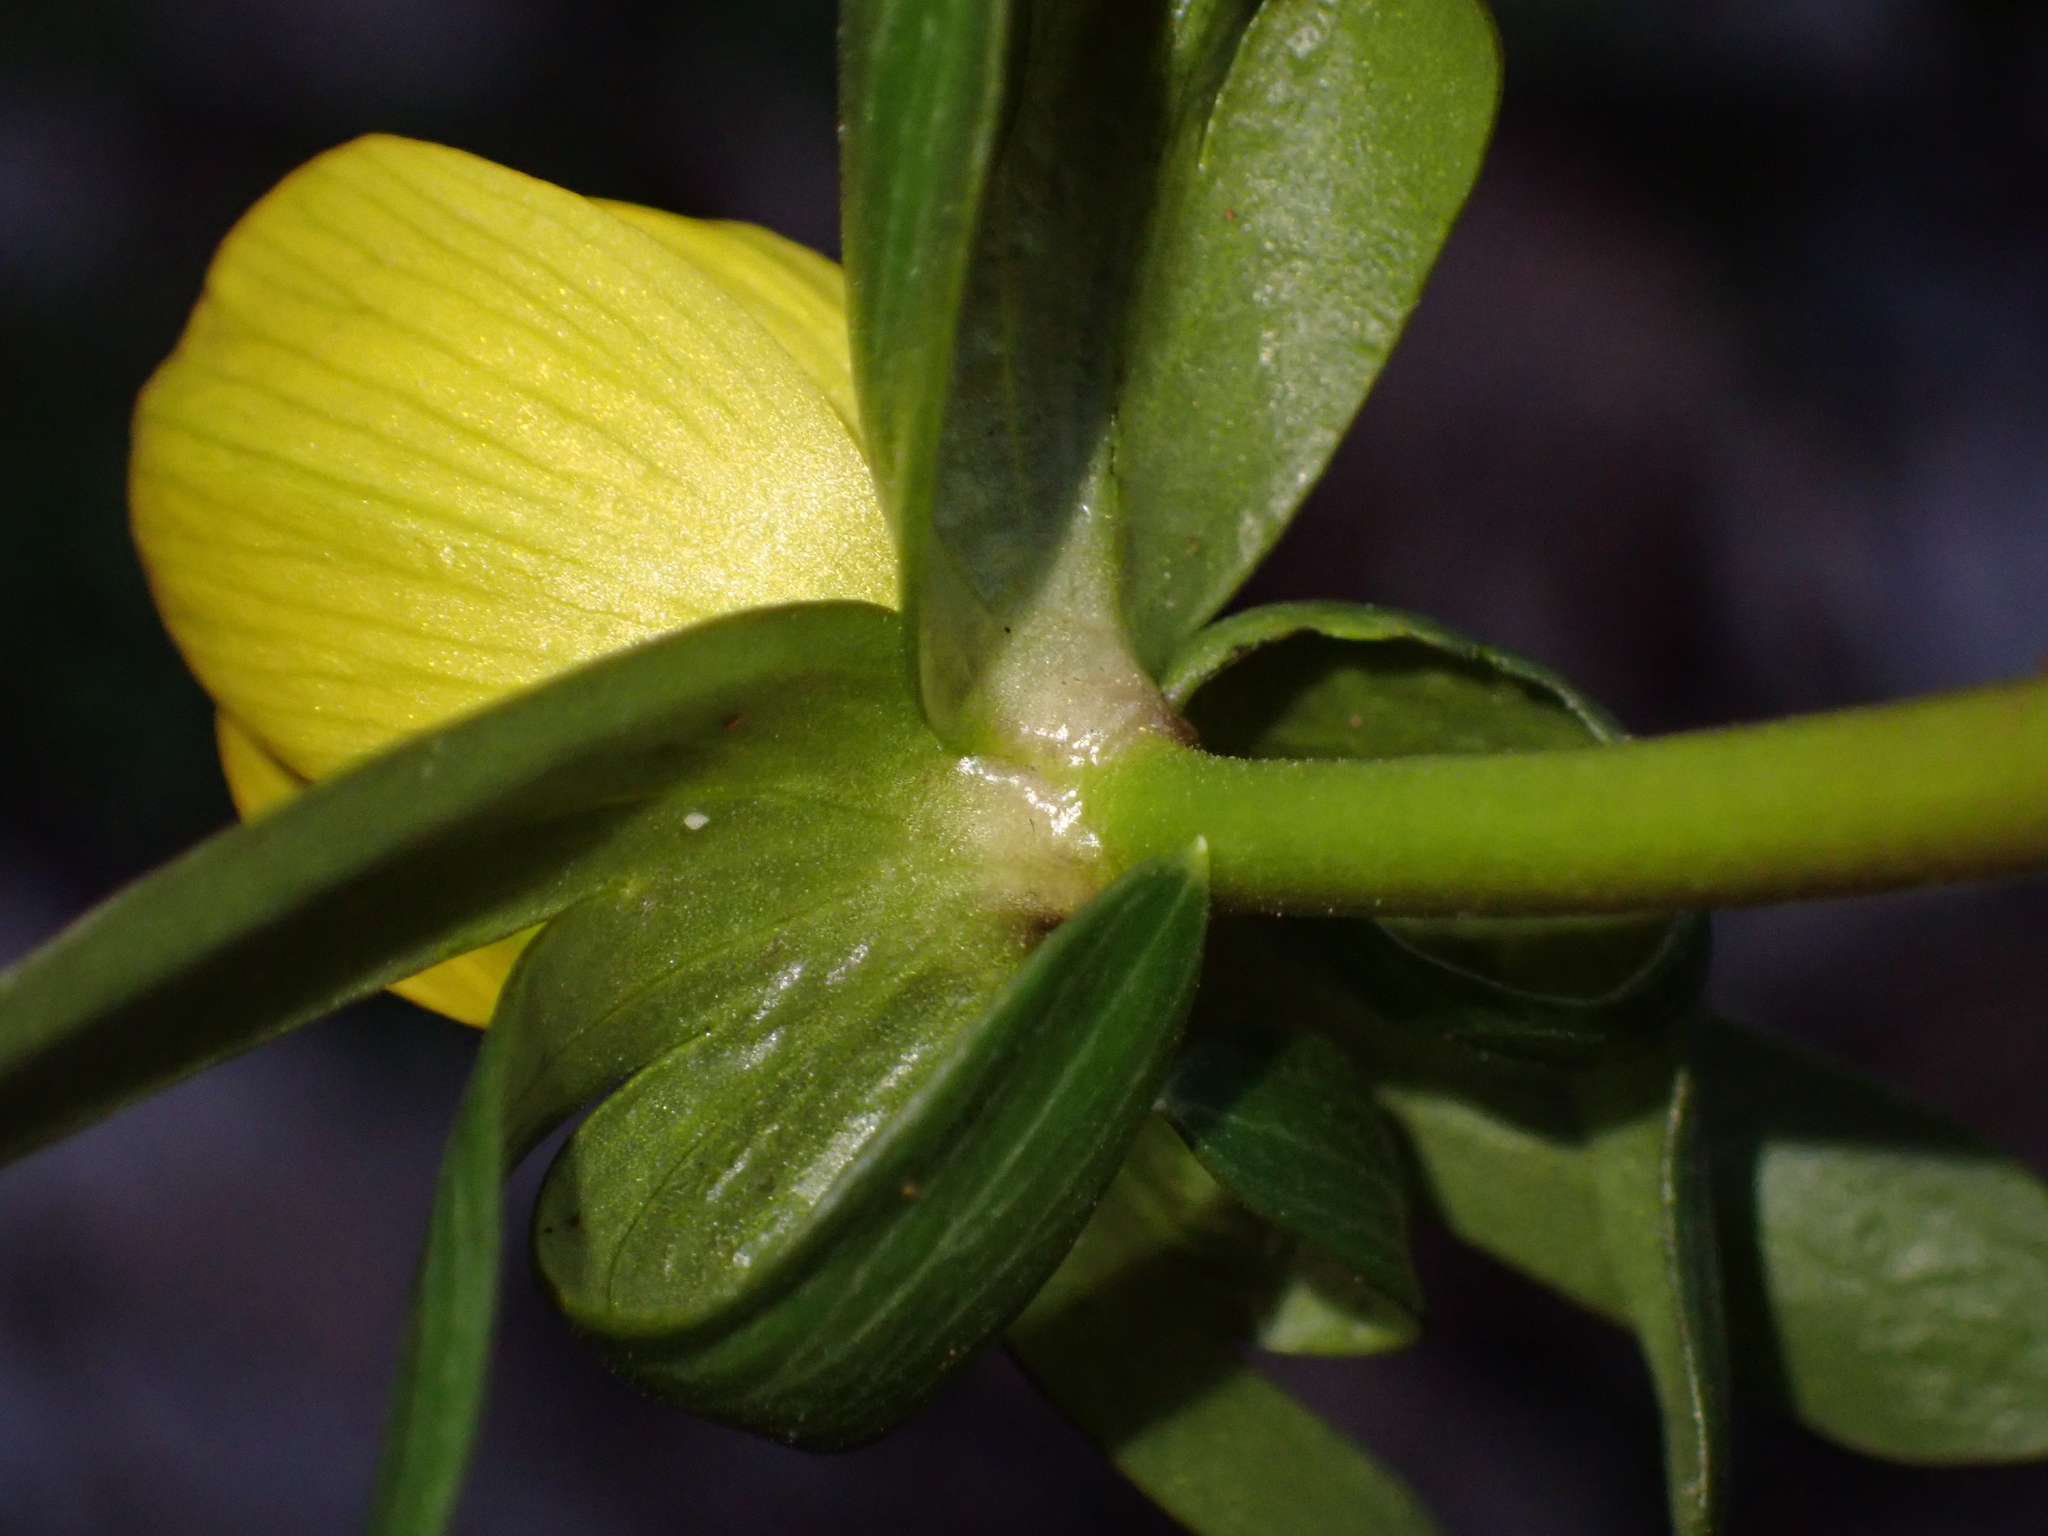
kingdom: Plantae
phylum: Tracheophyta
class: Magnoliopsida
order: Ranunculales
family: Ranunculaceae
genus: Eranthis
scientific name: Eranthis hyemalis
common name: Winter aconite
